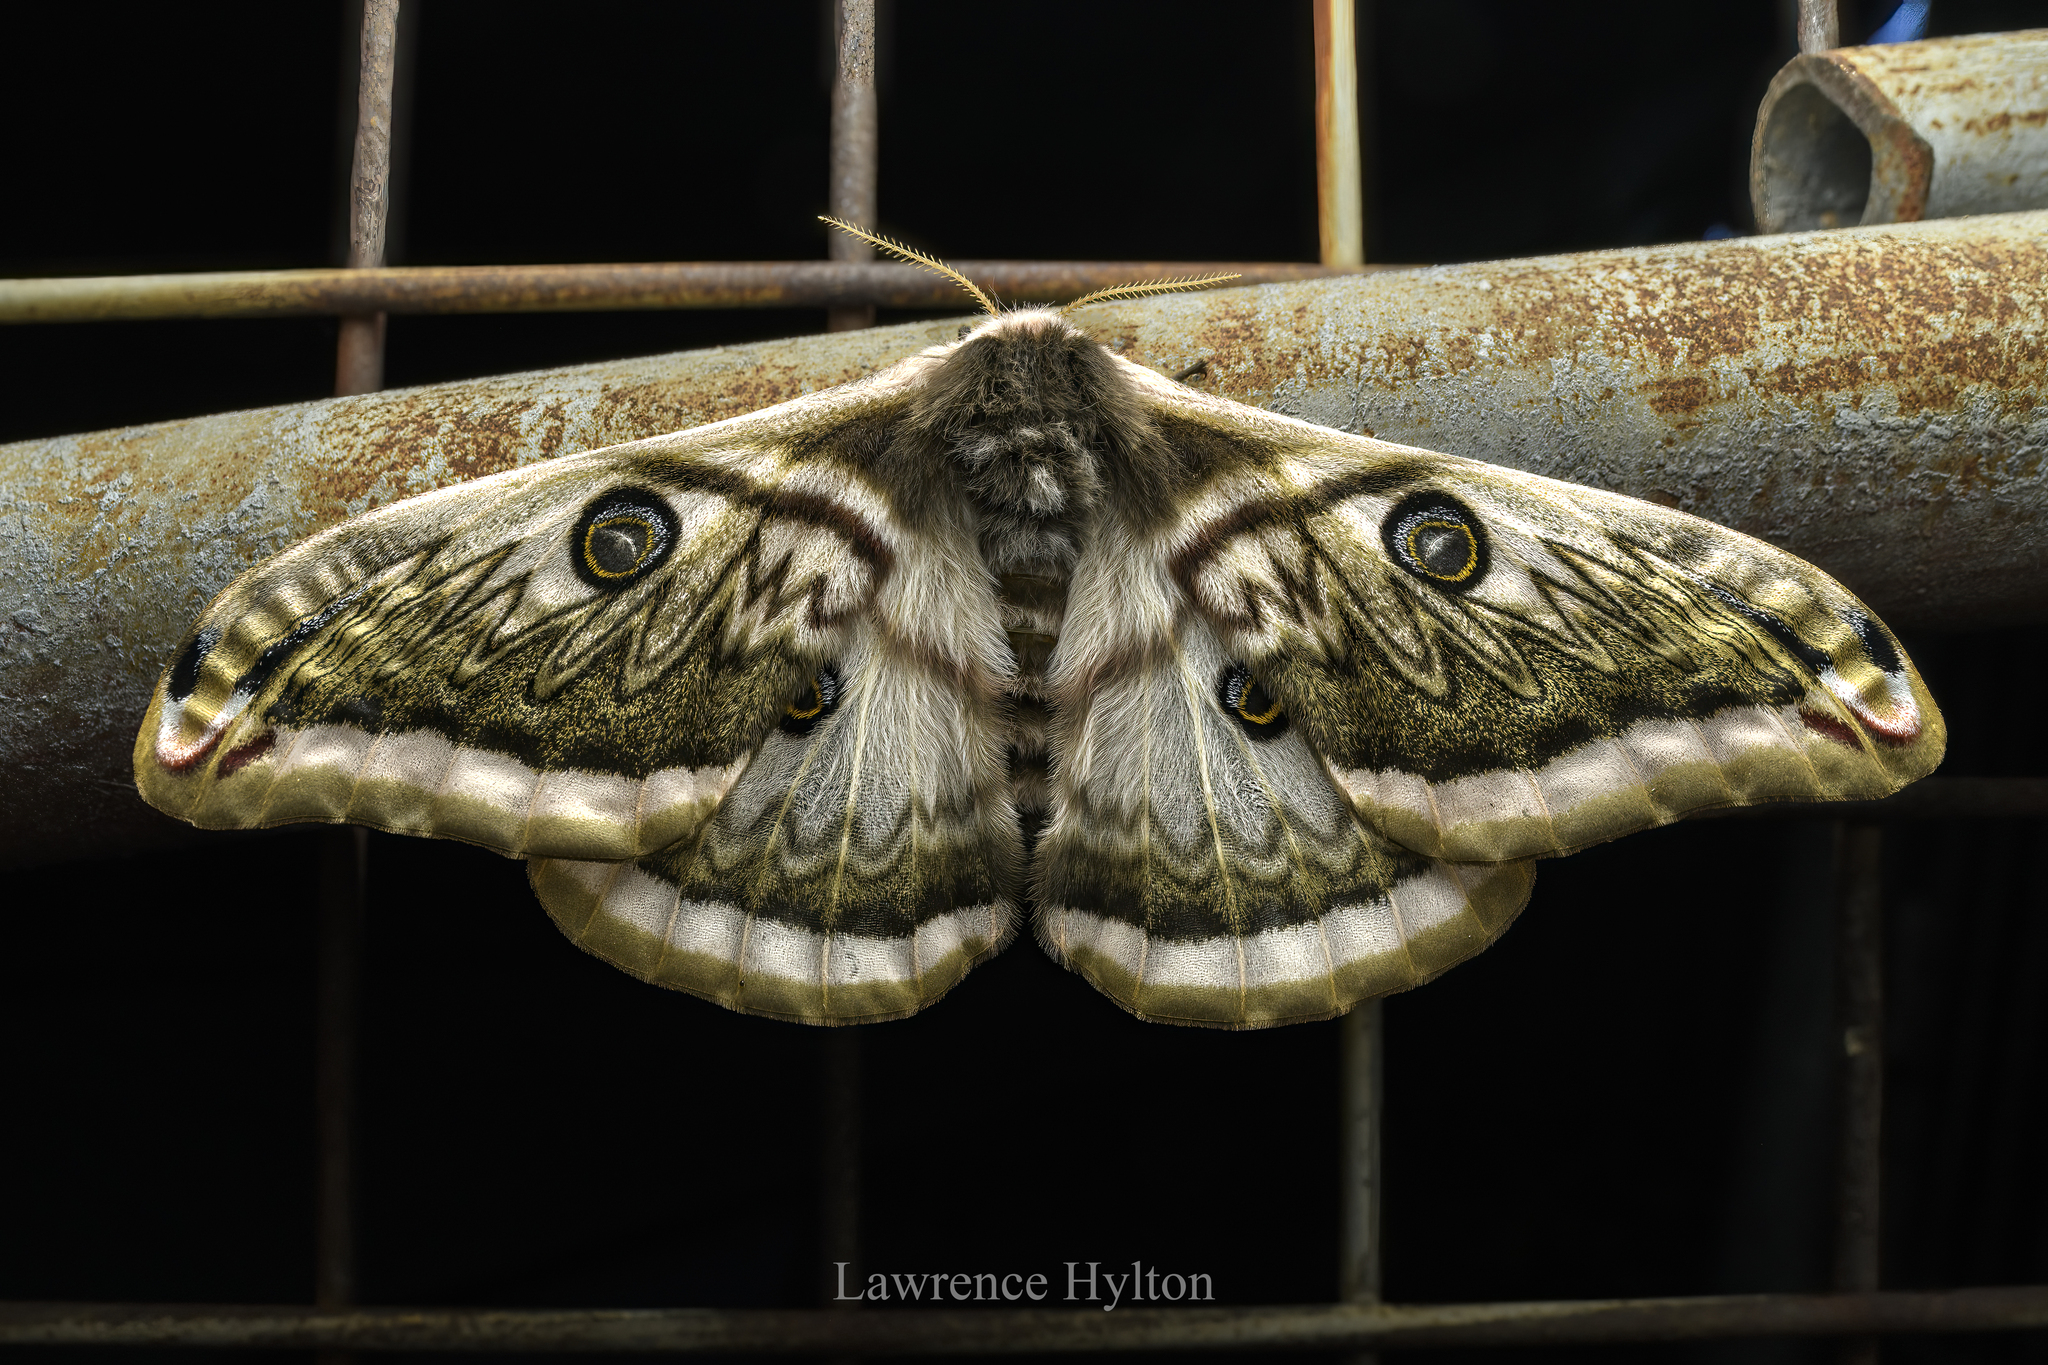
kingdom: Animalia
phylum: Arthropoda
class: Insecta
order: Lepidoptera
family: Saturniidae
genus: Saturnia
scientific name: Saturnia pyretorum
